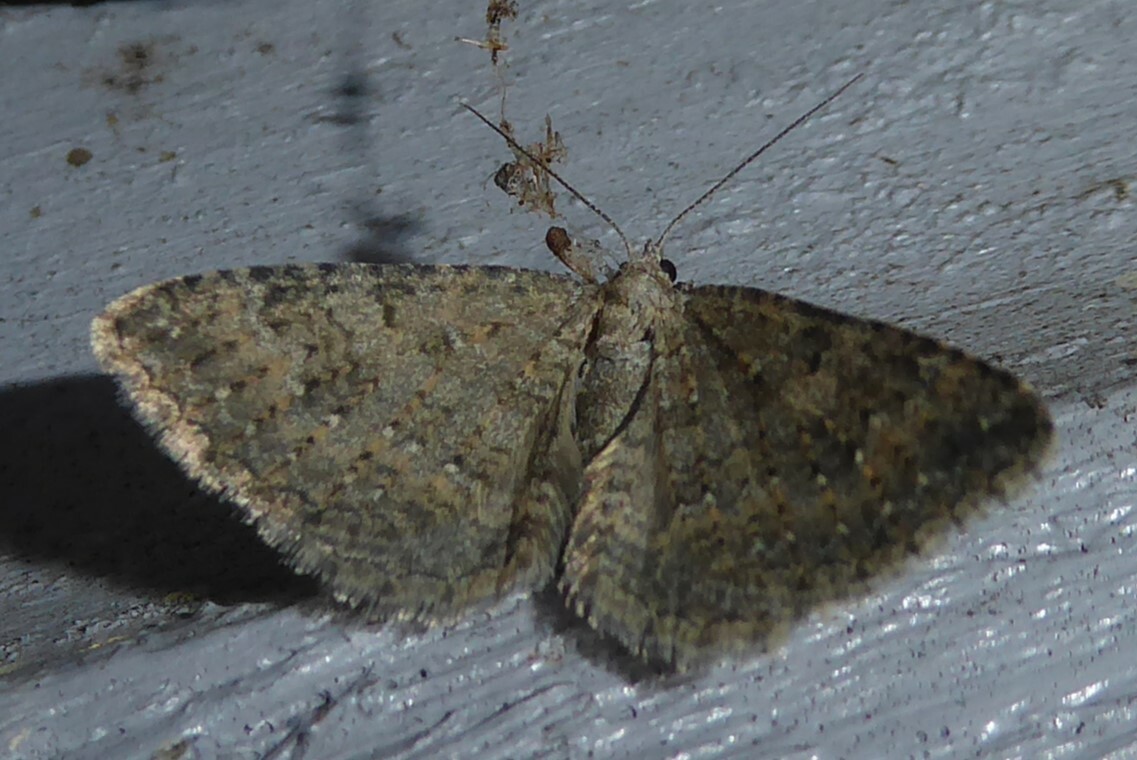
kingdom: Animalia
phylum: Arthropoda
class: Insecta
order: Lepidoptera
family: Geometridae
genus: Helastia
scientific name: Helastia corcularia
